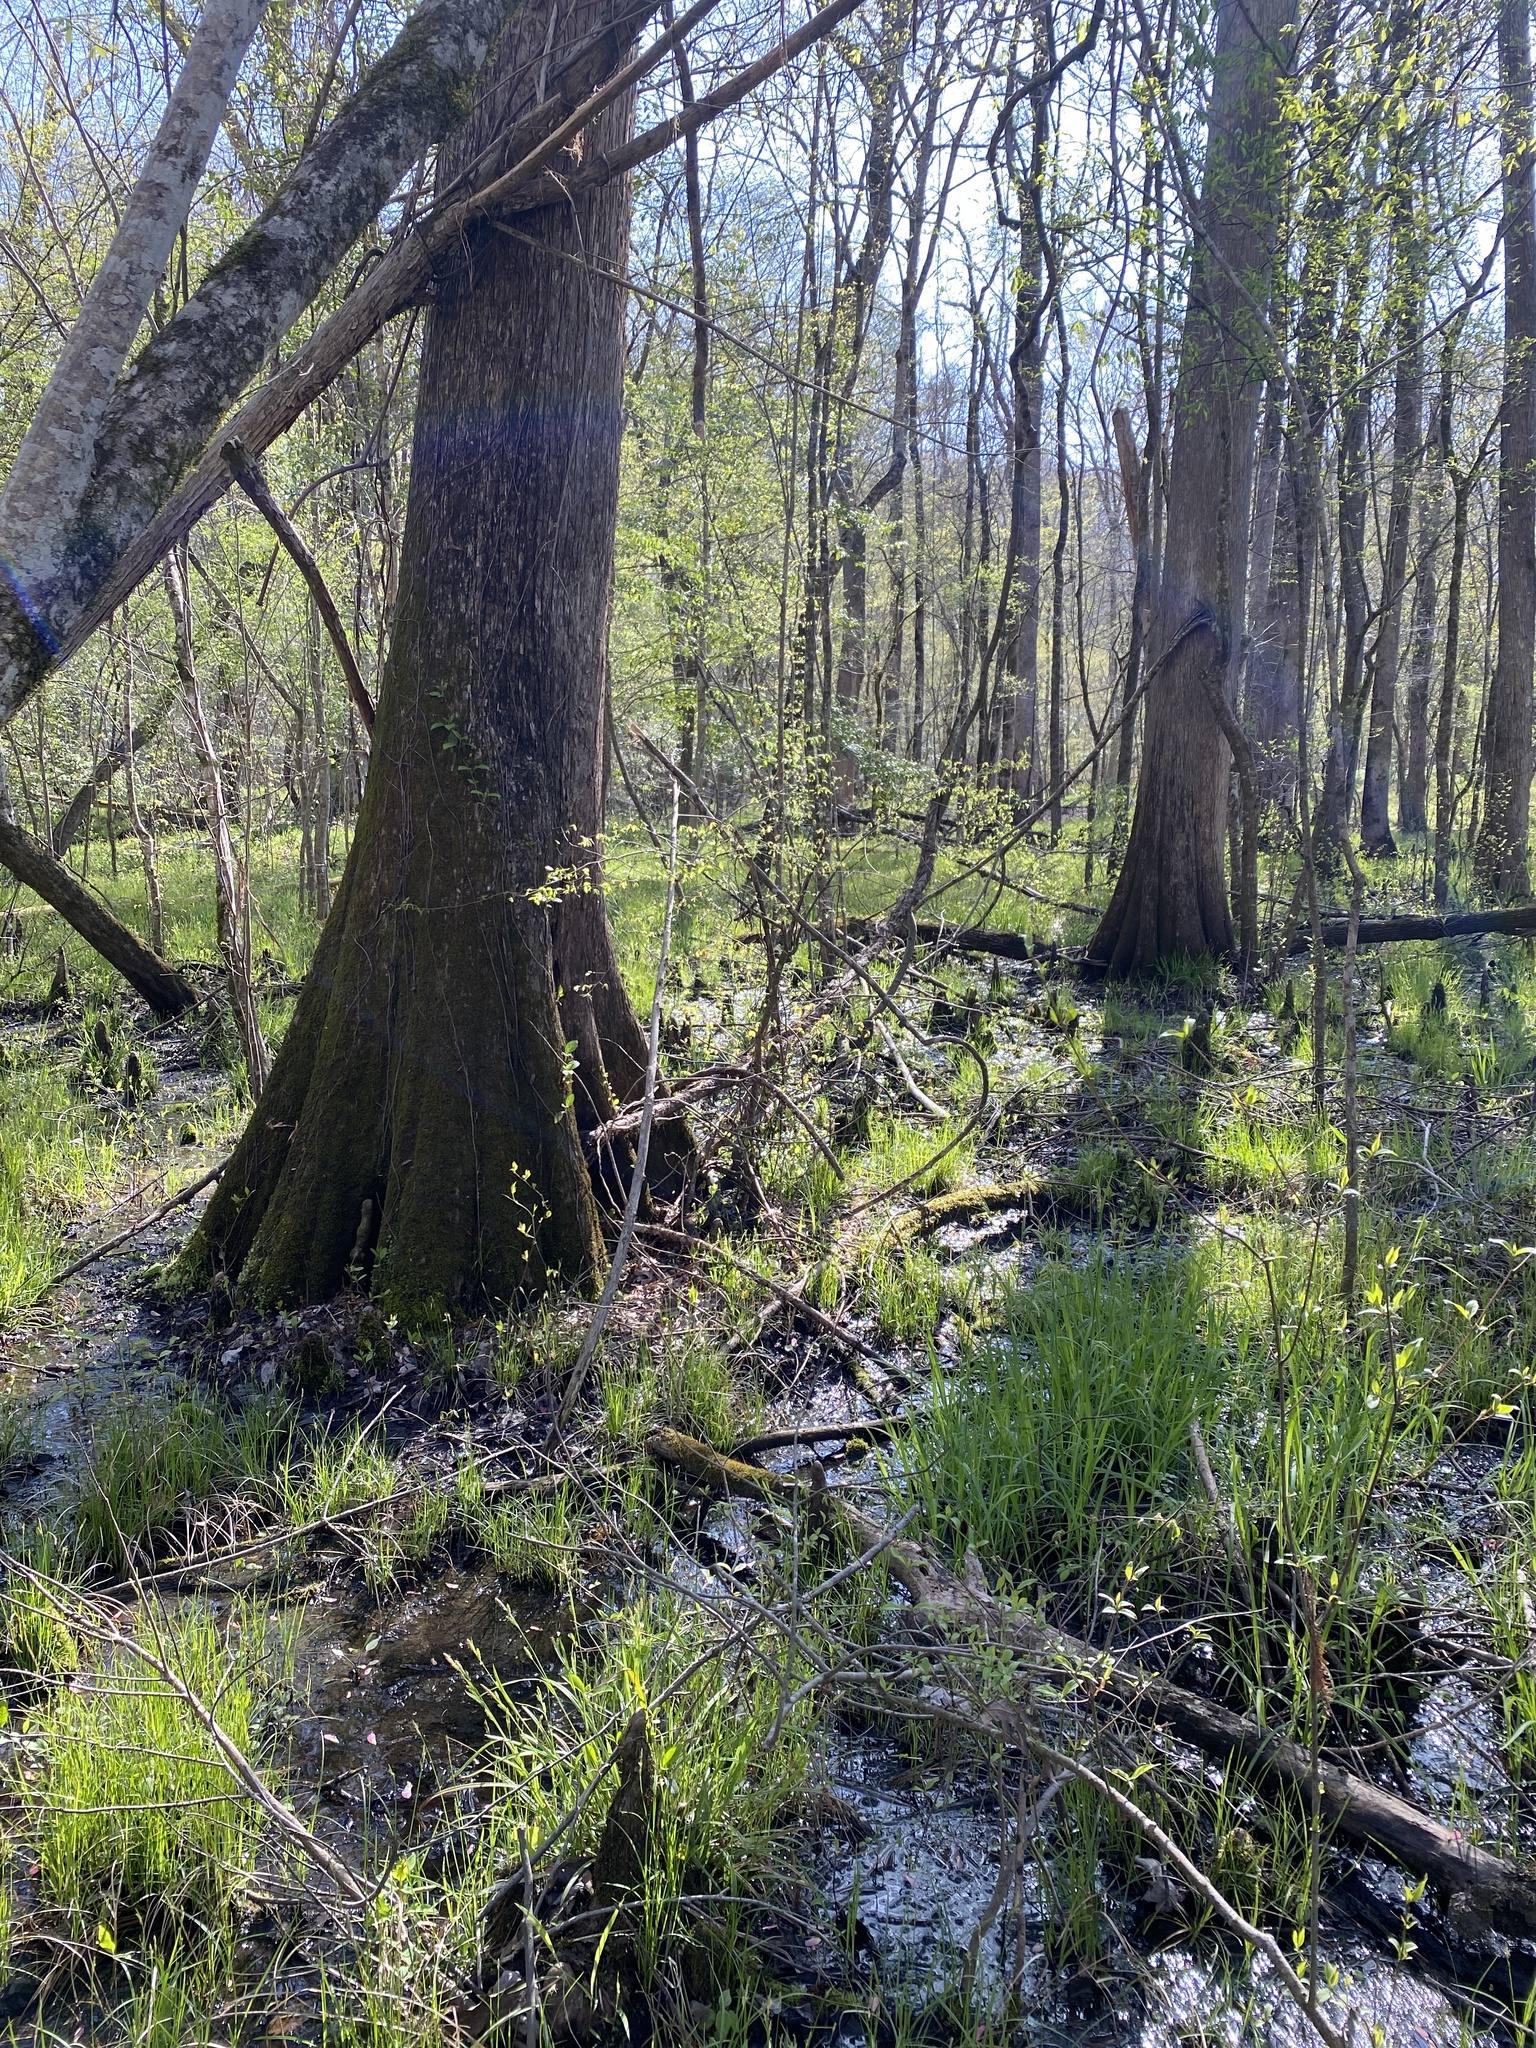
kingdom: Plantae
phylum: Tracheophyta
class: Pinopsida
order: Pinales
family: Cupressaceae
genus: Taxodium
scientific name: Taxodium distichum
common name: Bald cypress
